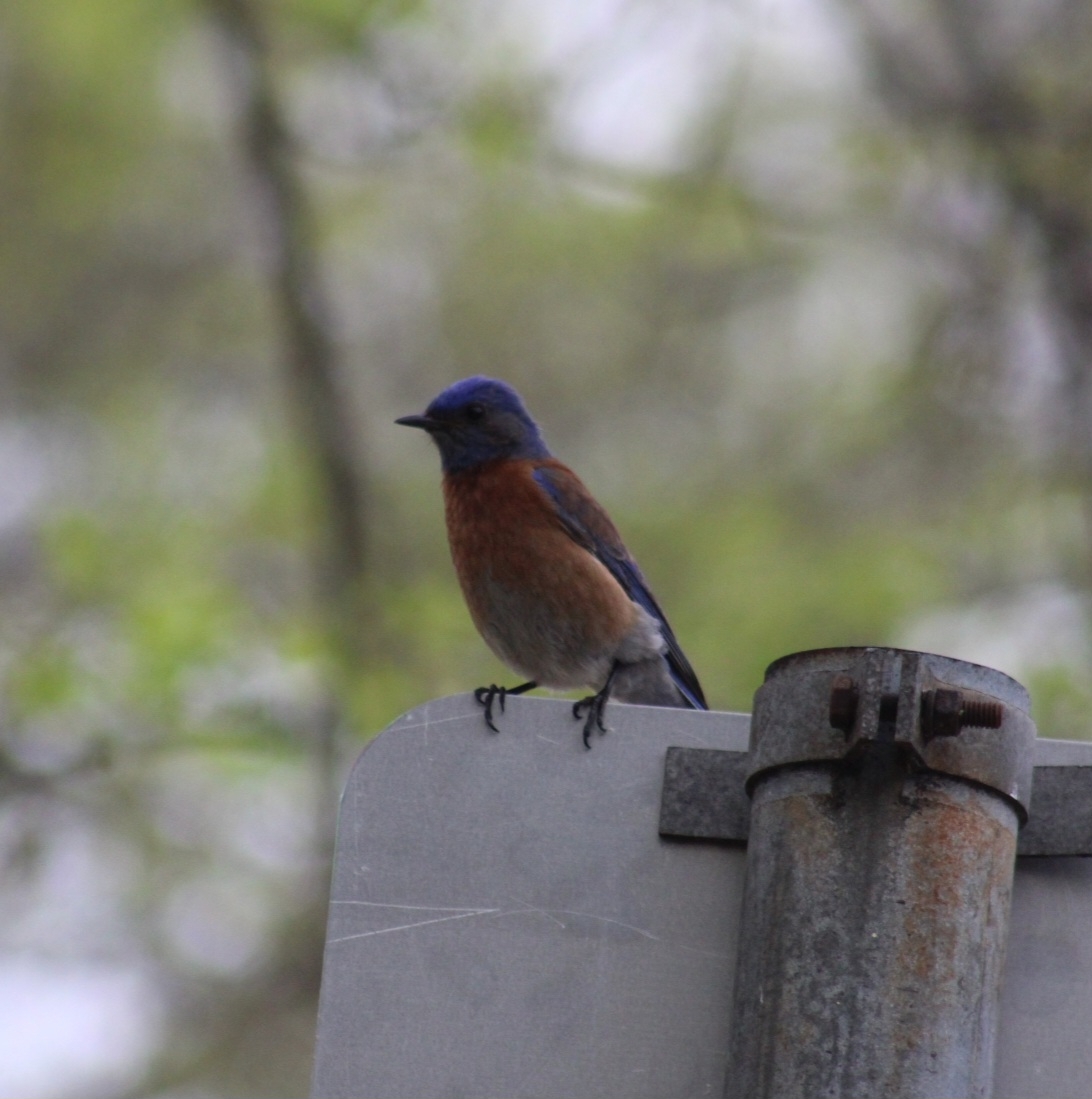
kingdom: Animalia
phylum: Chordata
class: Aves
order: Passeriformes
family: Turdidae
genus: Sialia
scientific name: Sialia mexicana
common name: Western bluebird
